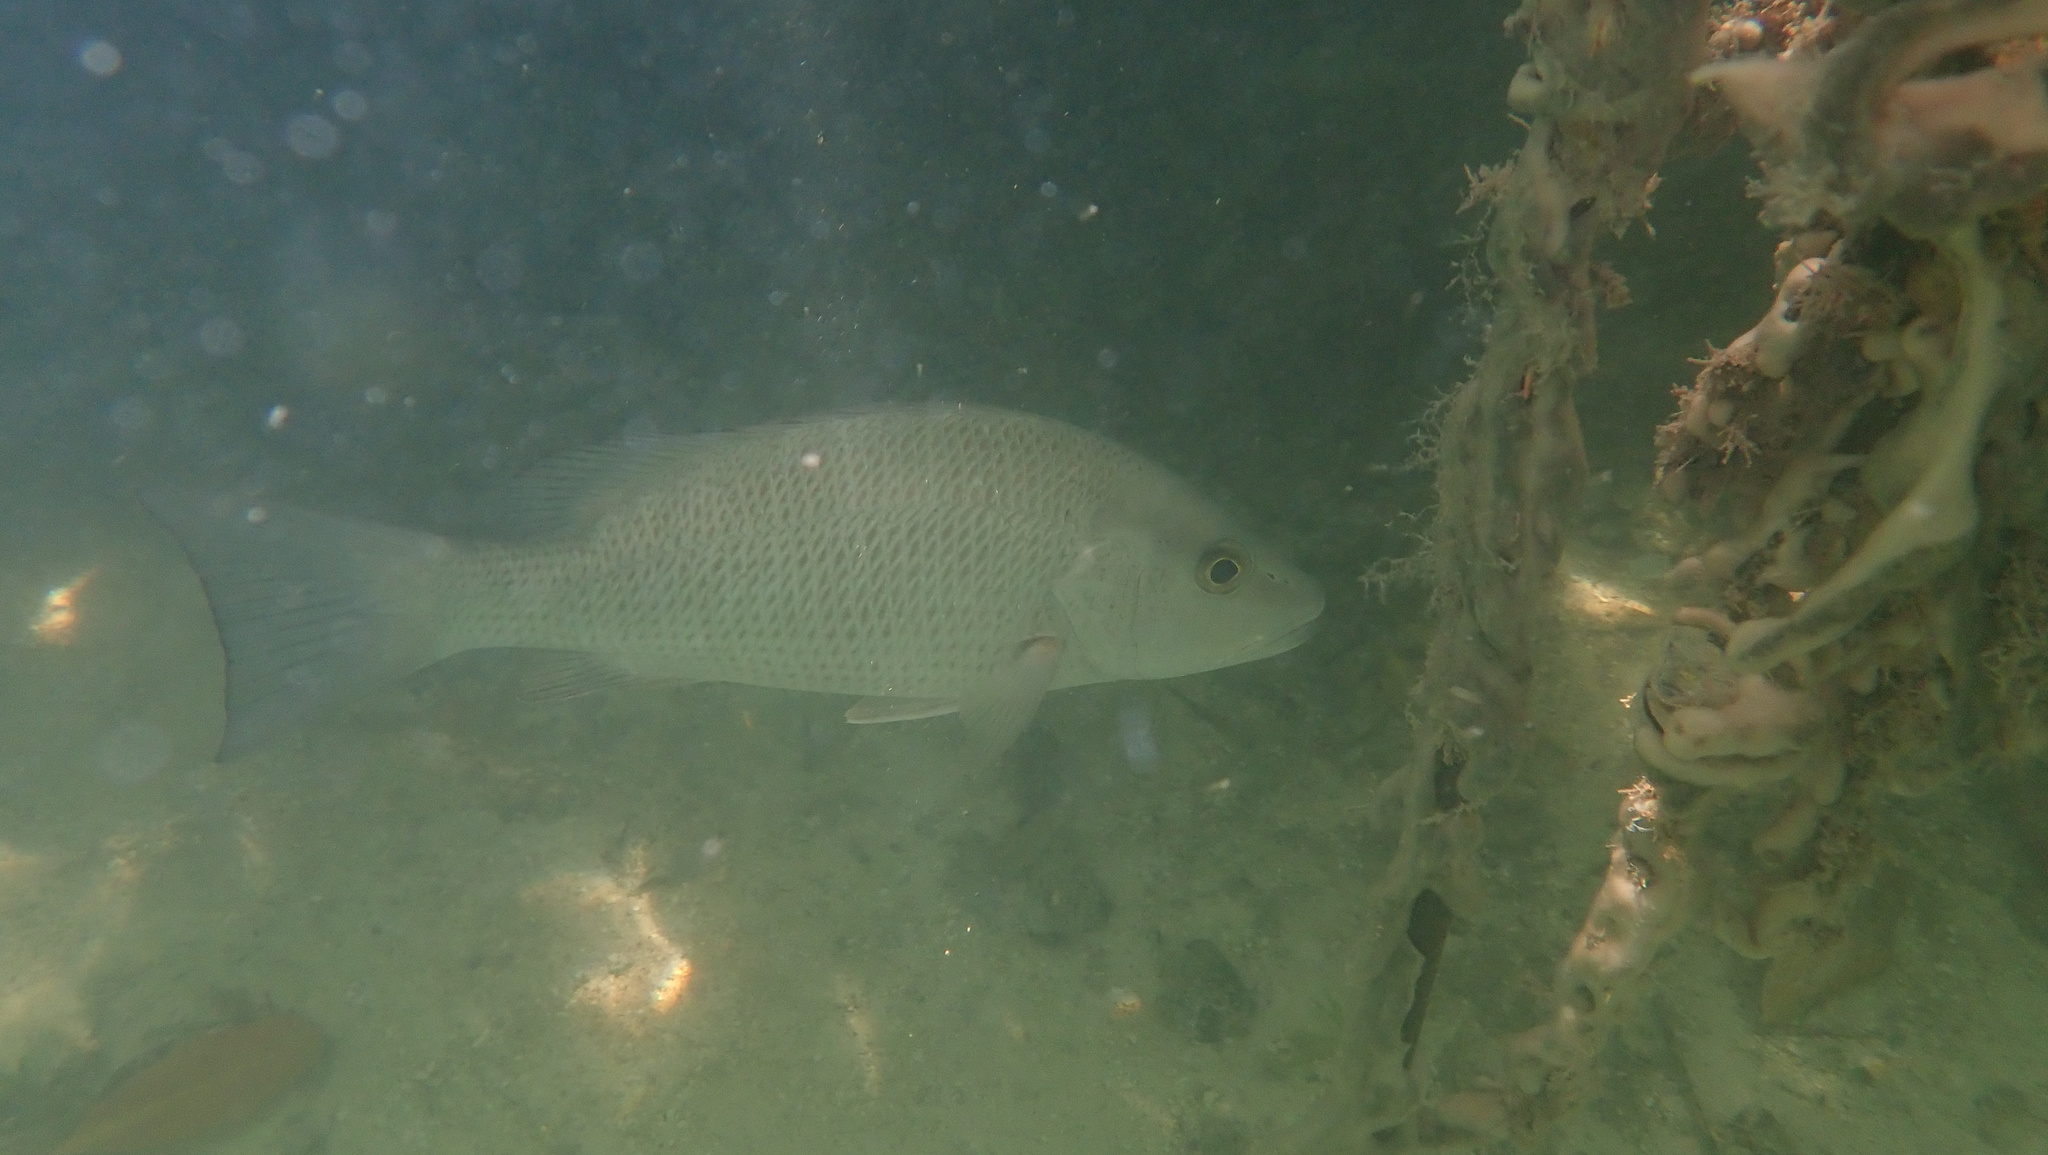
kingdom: Animalia
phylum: Chordata
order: Perciformes
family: Lutjanidae
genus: Lutjanus
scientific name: Lutjanus griseus
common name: Gray snapper
